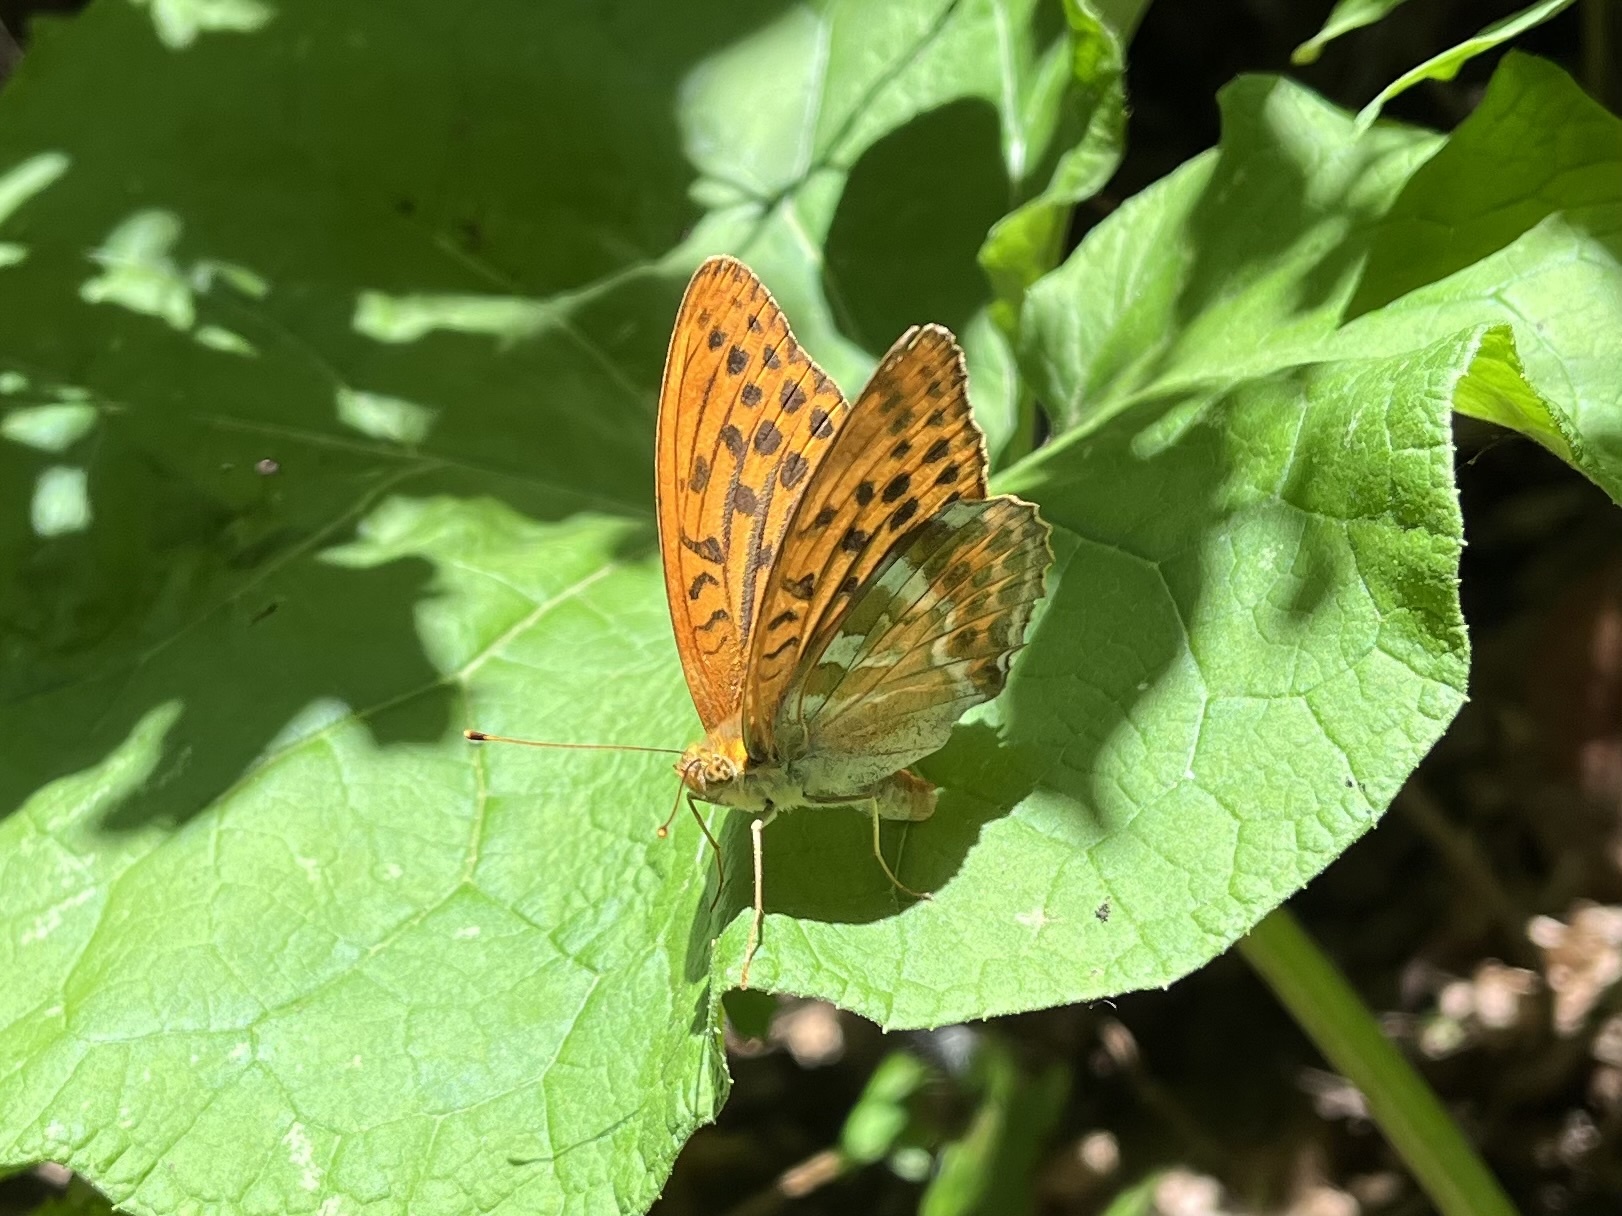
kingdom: Animalia
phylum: Arthropoda
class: Insecta
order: Lepidoptera
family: Nymphalidae
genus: Argynnis
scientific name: Argynnis paphia
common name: Silver-washed fritillary
